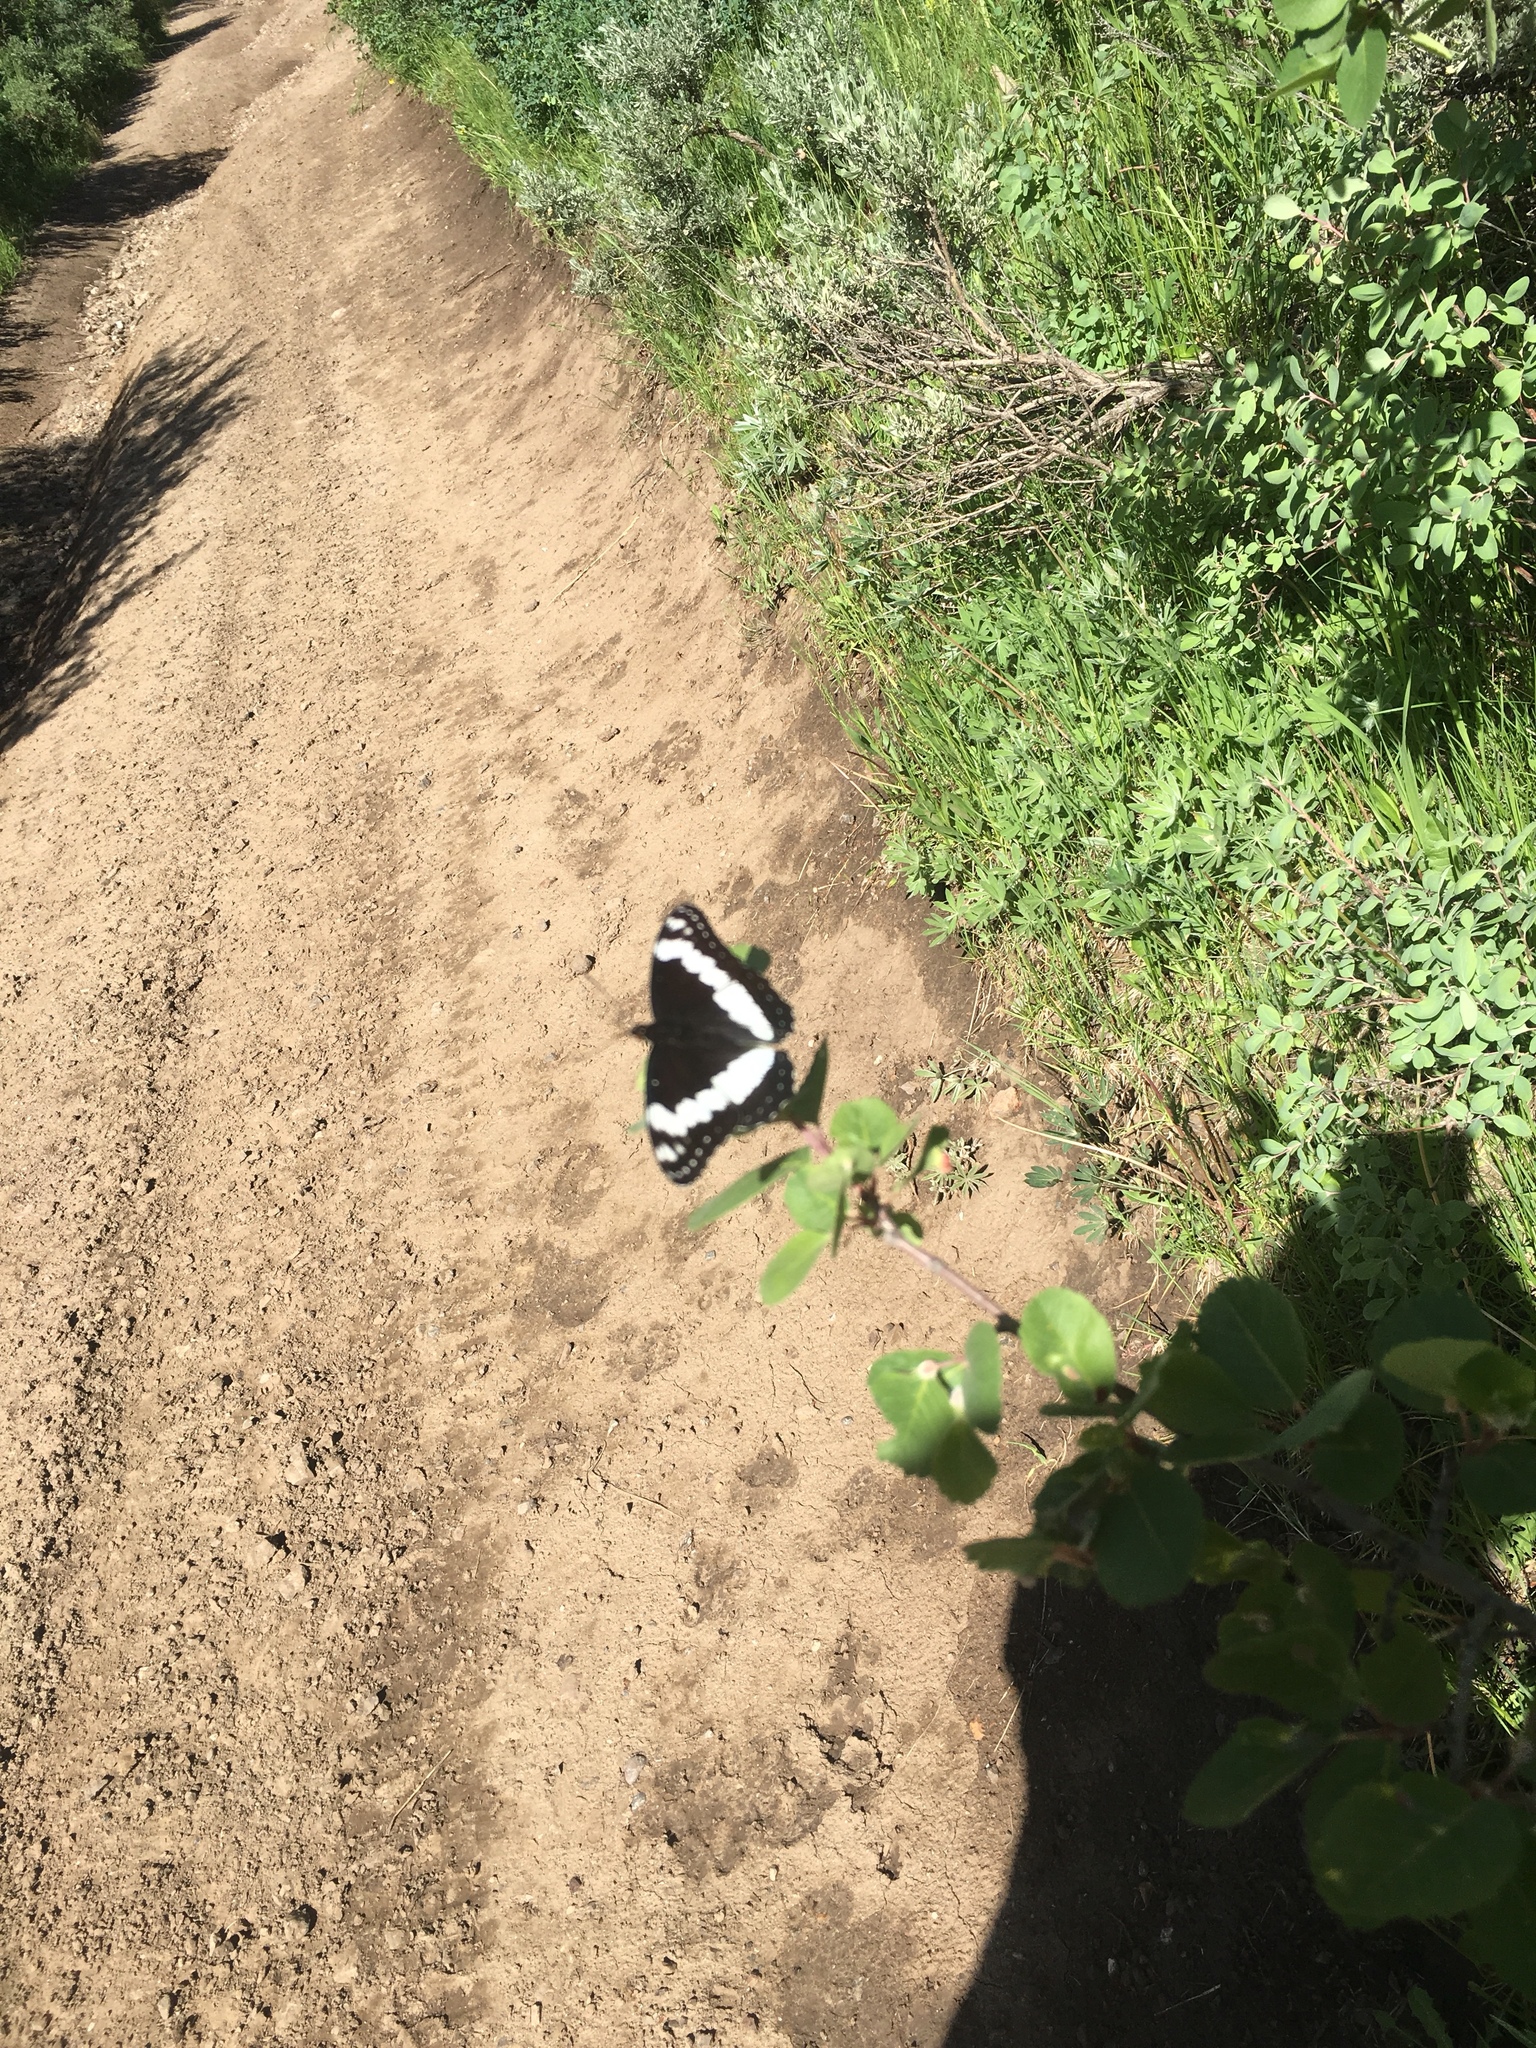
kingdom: Animalia
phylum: Arthropoda
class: Insecta
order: Lepidoptera
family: Nymphalidae
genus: Limenitis
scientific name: Limenitis weidemeyerii
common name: Weidemeyer's admiral
